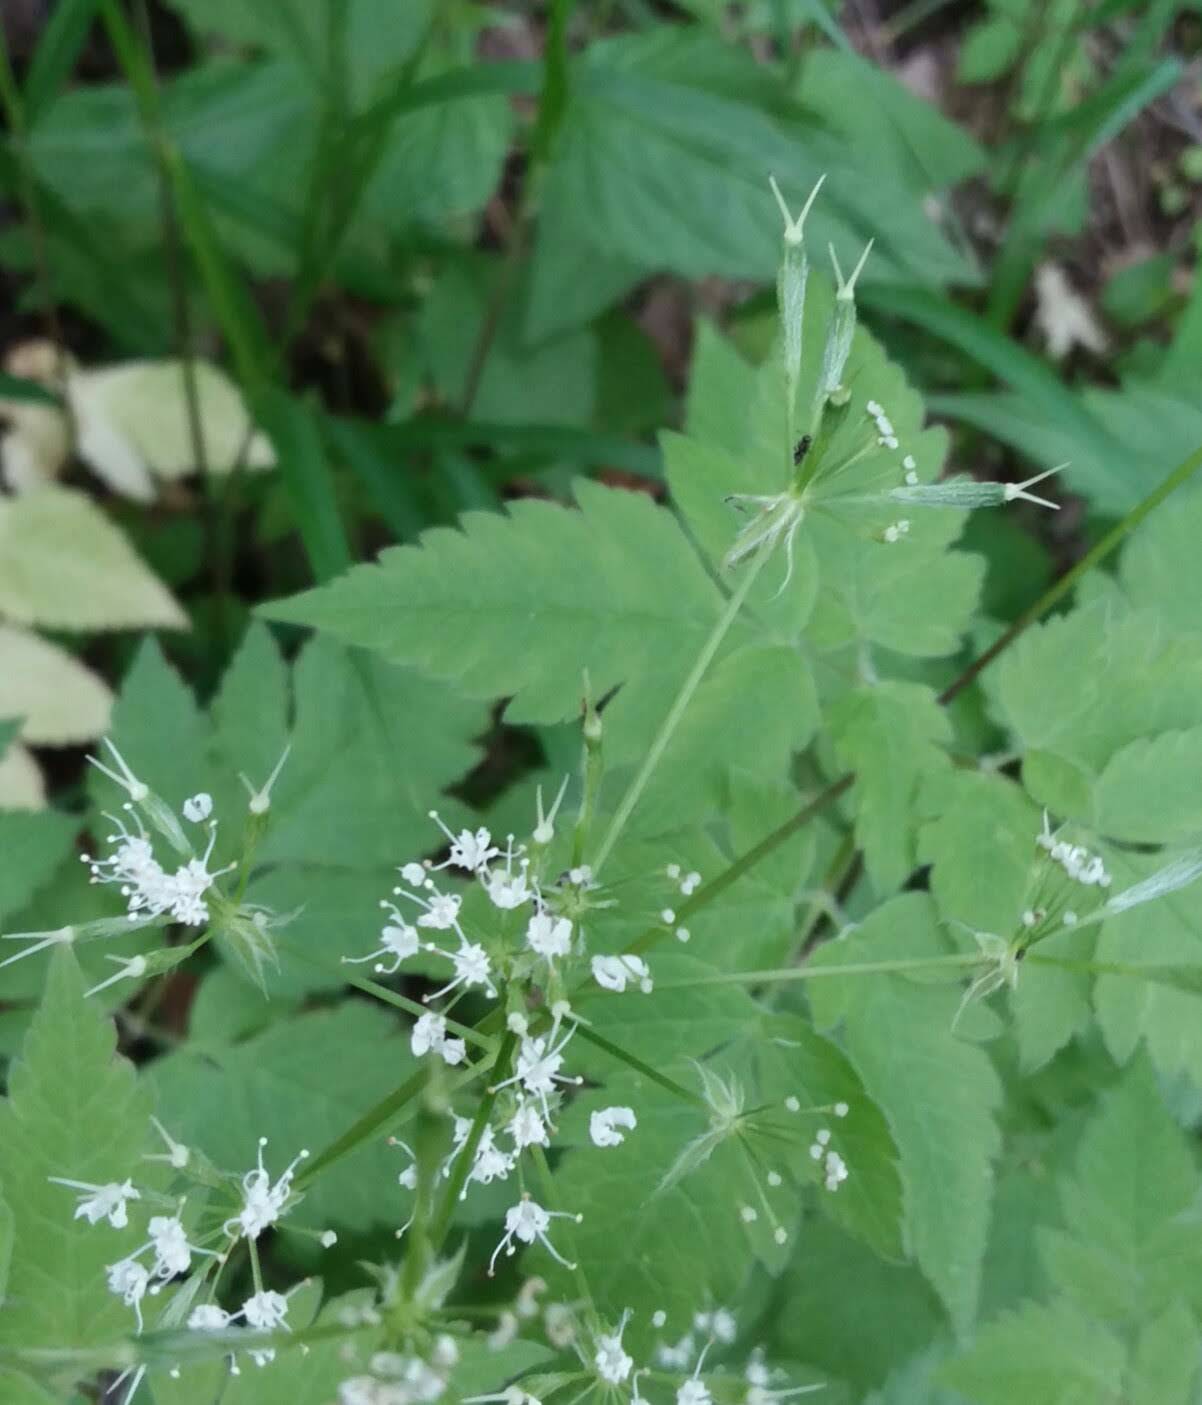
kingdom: Plantae
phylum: Tracheophyta
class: Magnoliopsida
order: Apiales
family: Apiaceae
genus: Osmorhiza
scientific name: Osmorhiza longistylis
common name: Smooth sweet cicely
